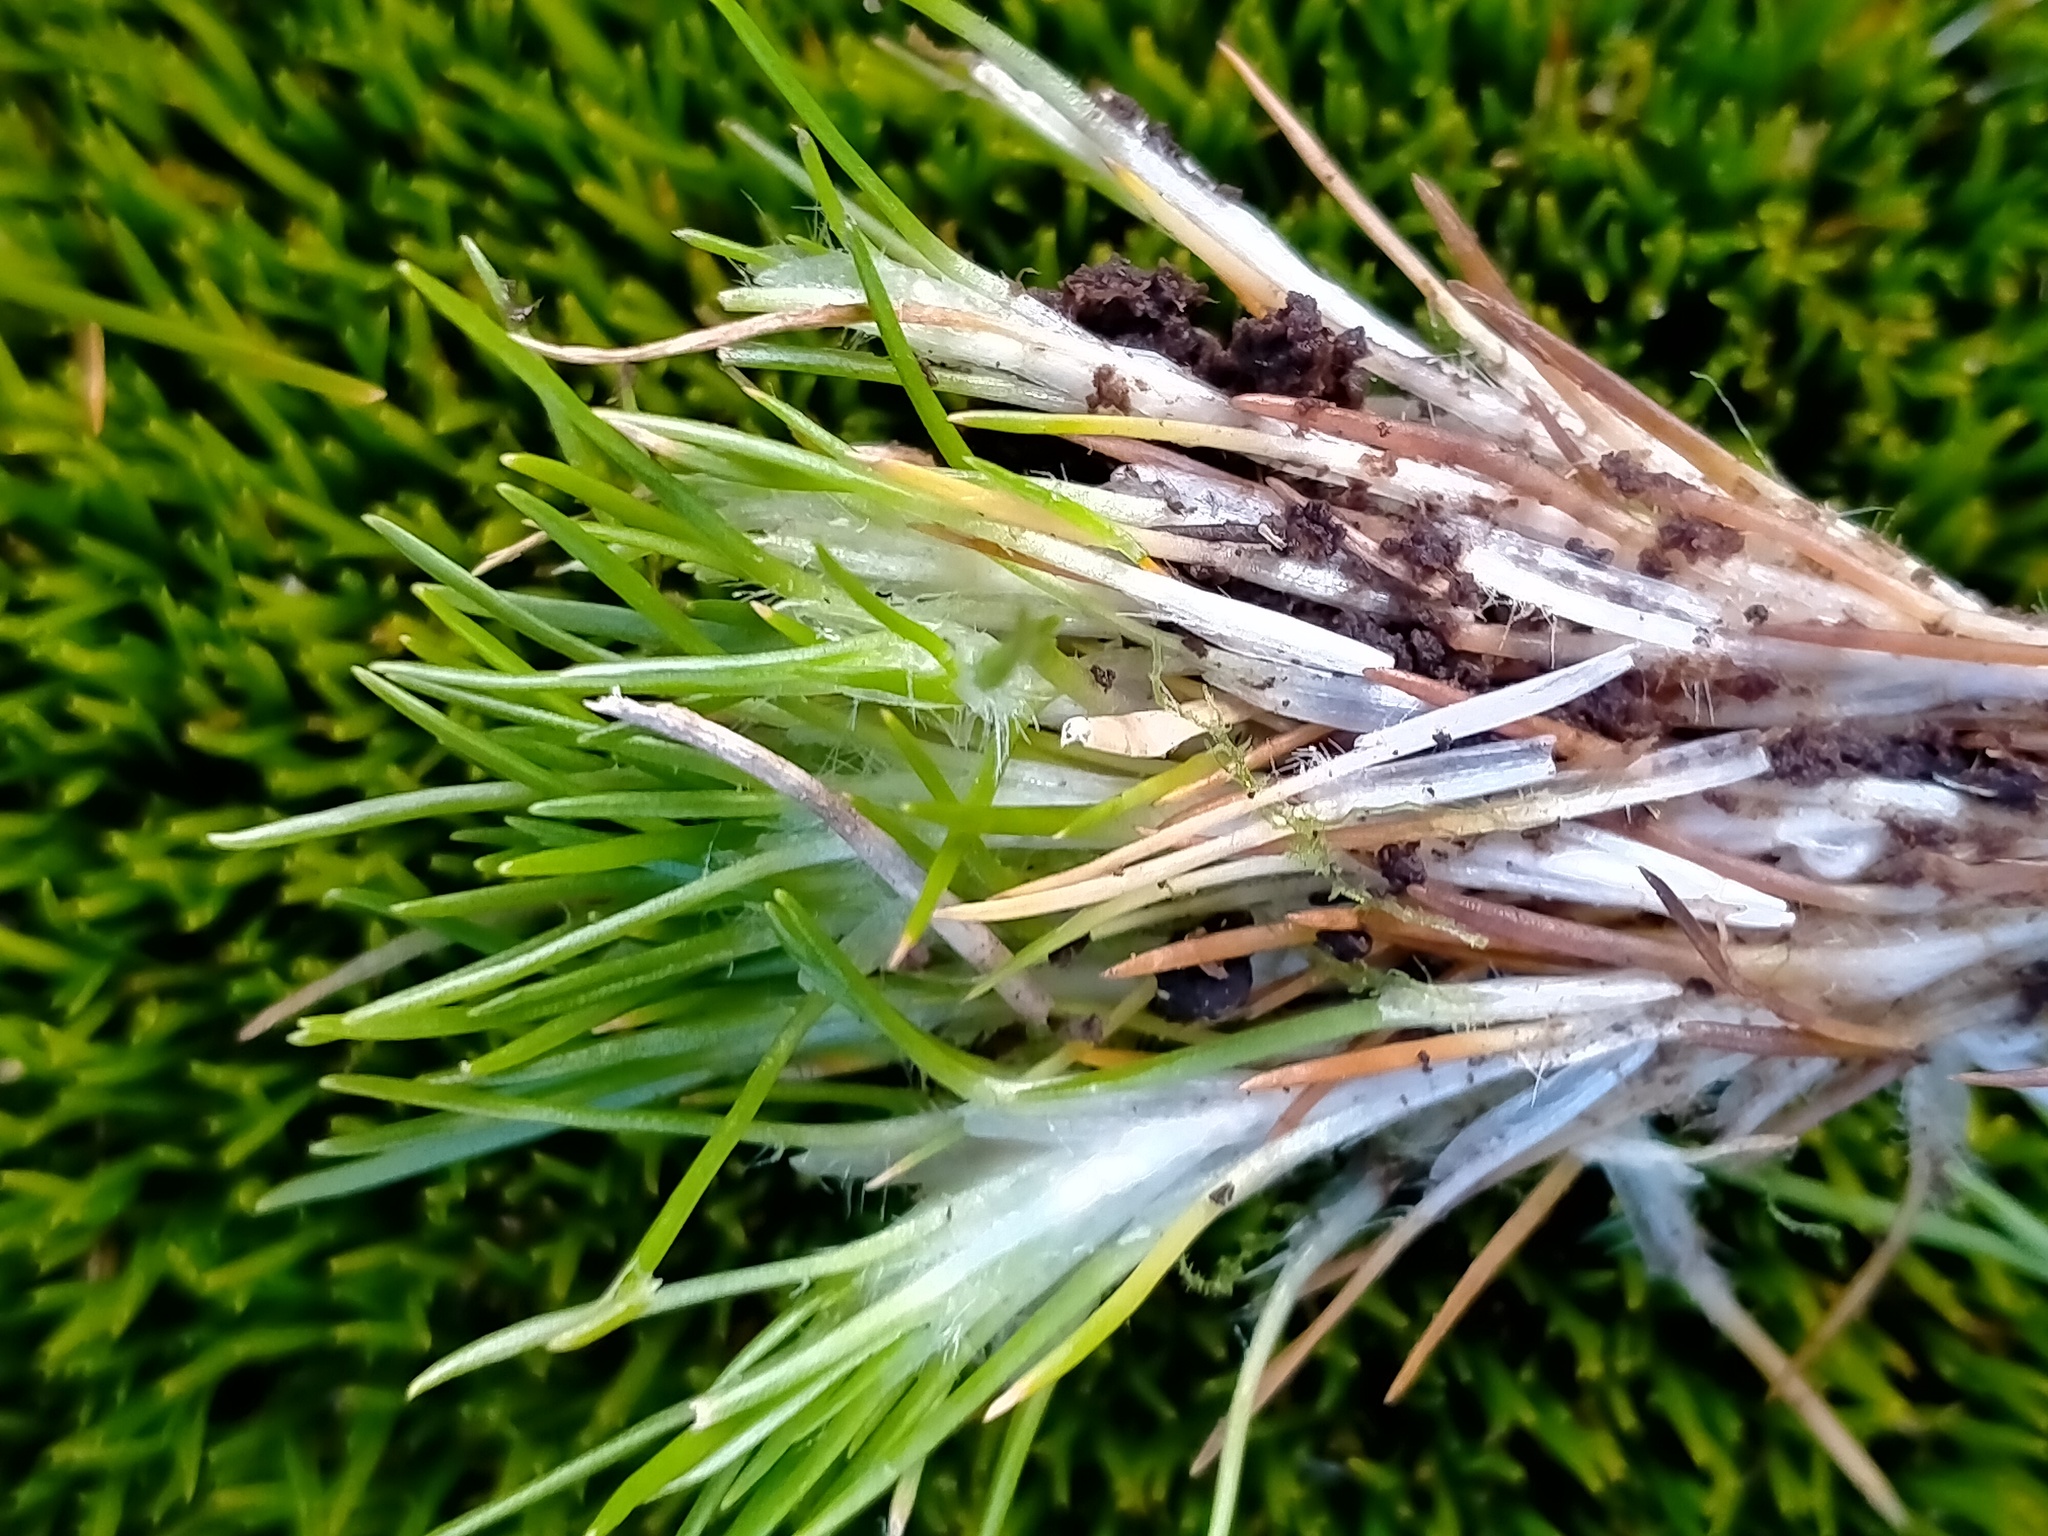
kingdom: Plantae
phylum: Tracheophyta
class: Liliopsida
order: Poales
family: Restionaceae
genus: Centrolepis
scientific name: Centrolepis ciliata
